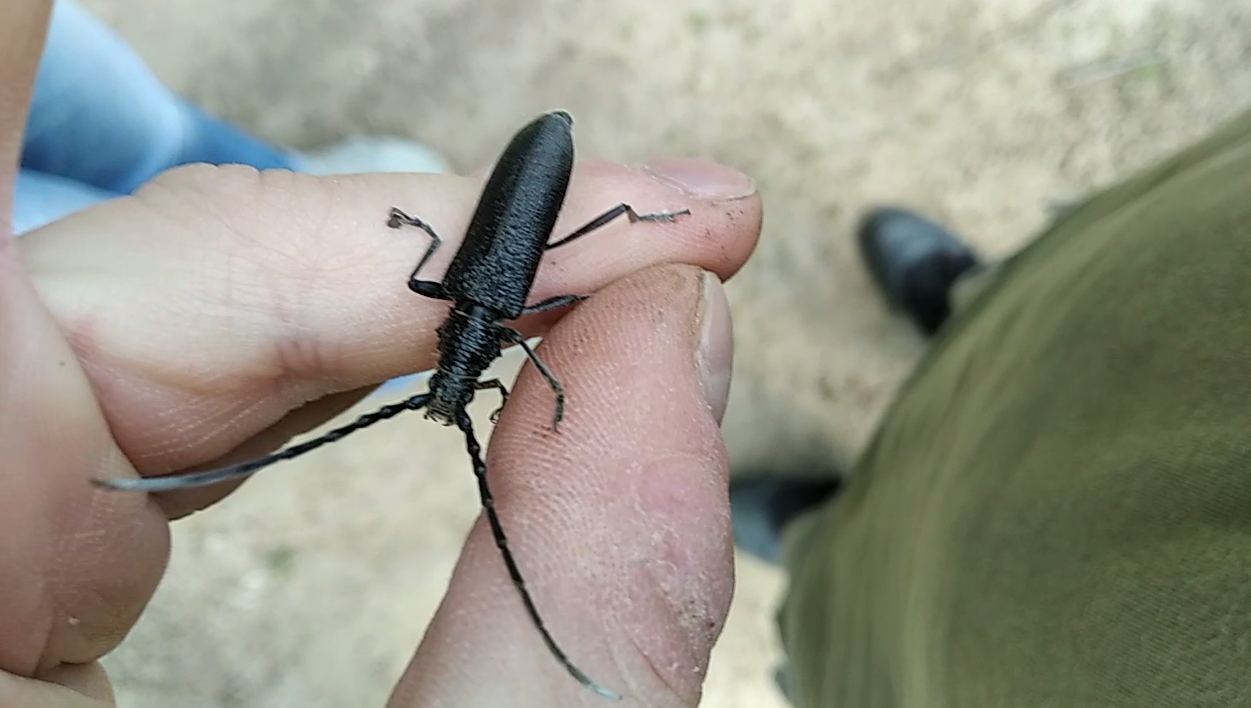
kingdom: Animalia
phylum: Arthropoda
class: Insecta
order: Coleoptera
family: Cerambycidae
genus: Cerambyx
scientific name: Cerambyx scopolii
